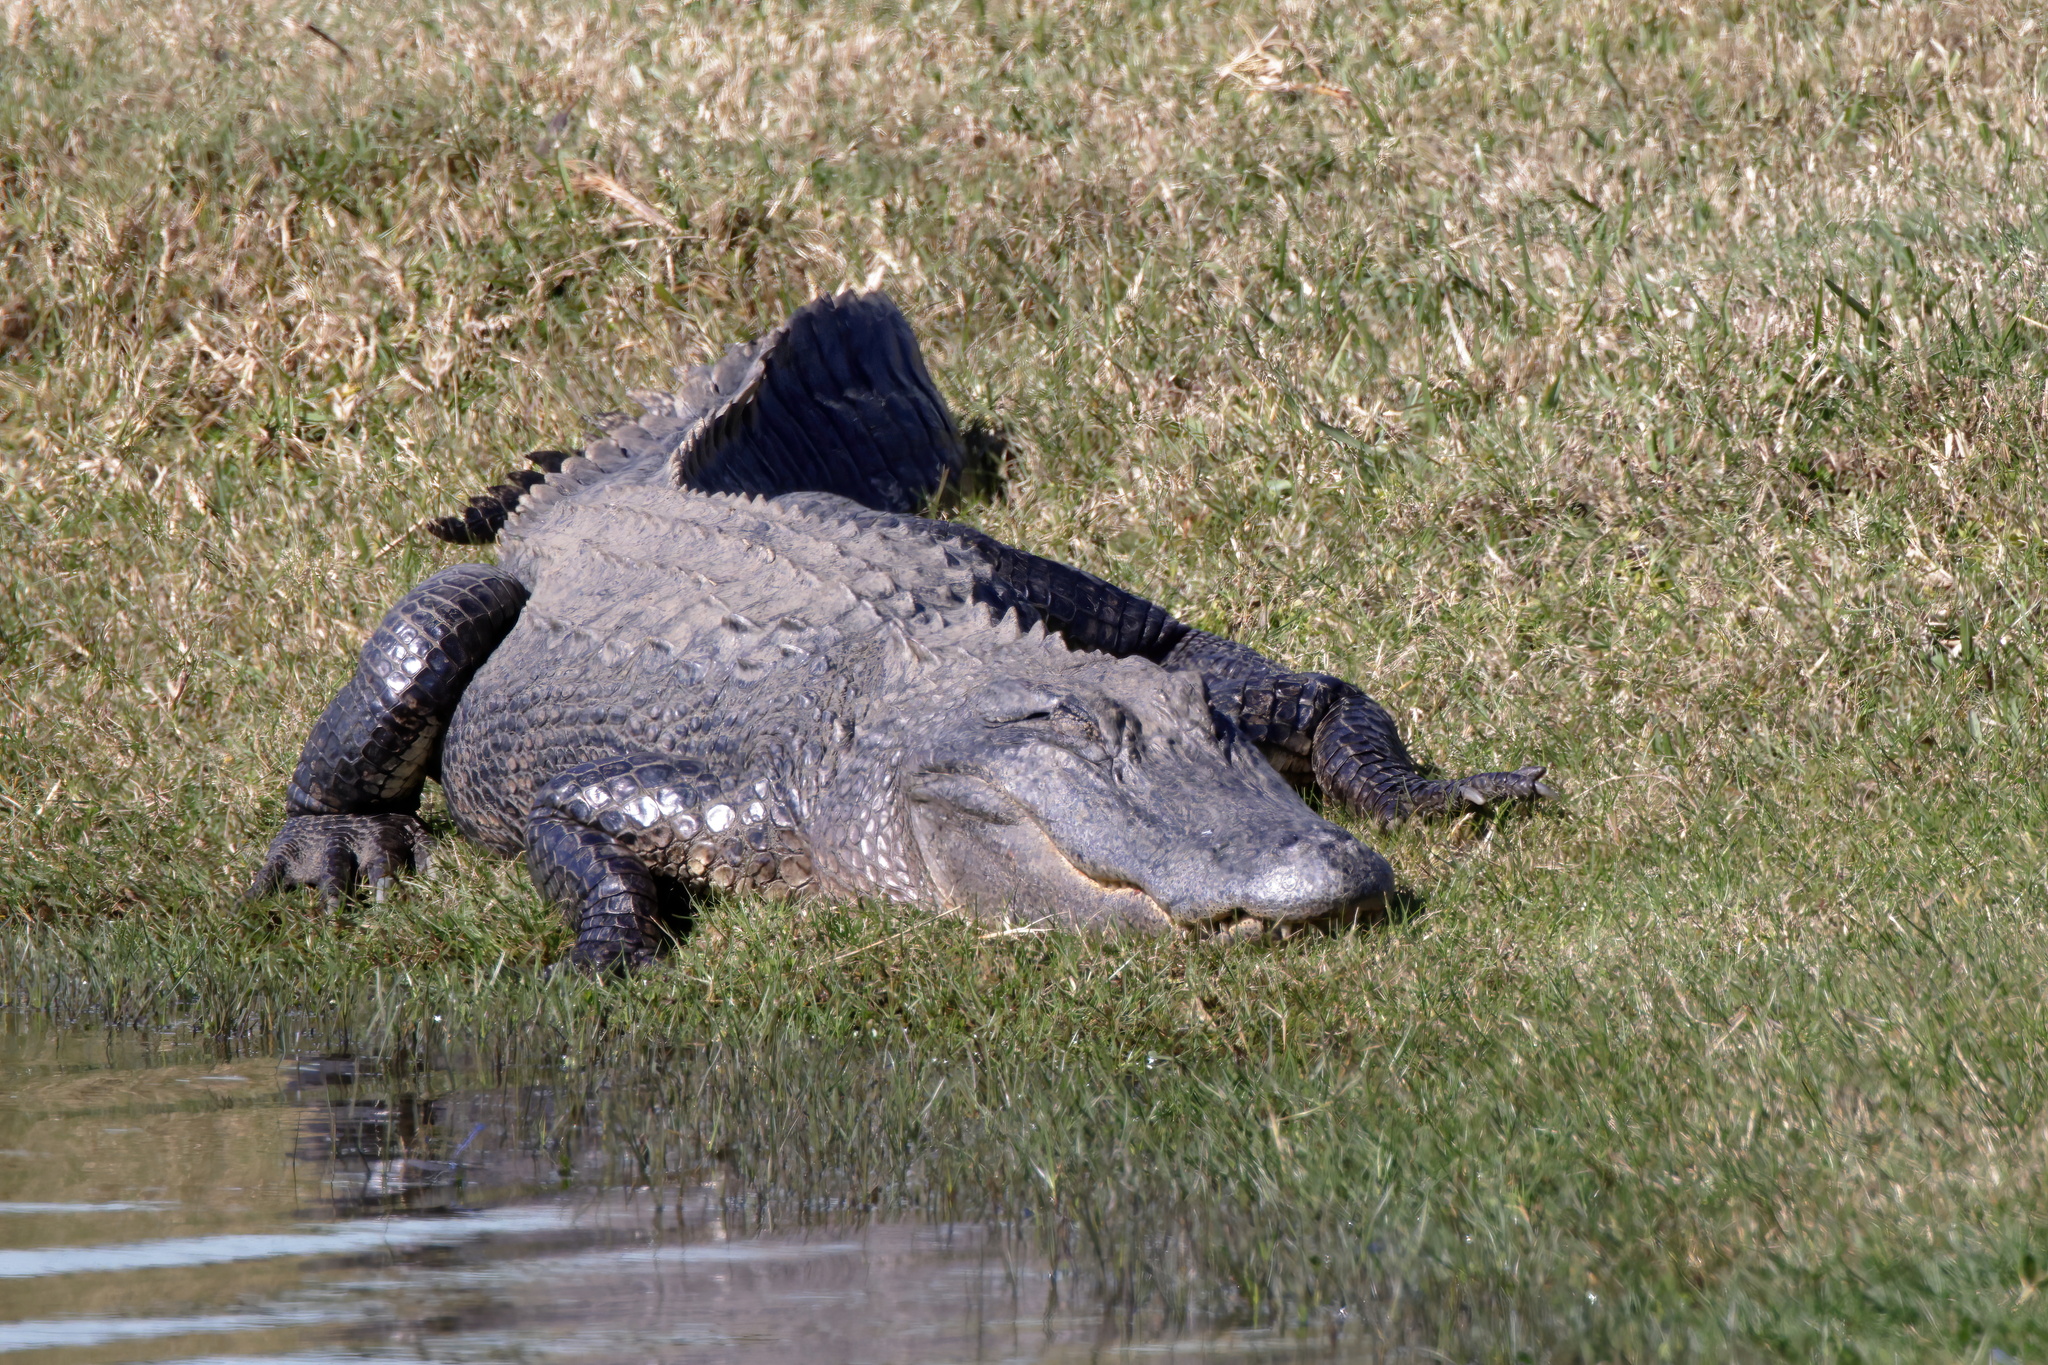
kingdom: Animalia
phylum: Chordata
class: Crocodylia
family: Alligatoridae
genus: Alligator
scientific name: Alligator mississippiensis
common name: American alligator
